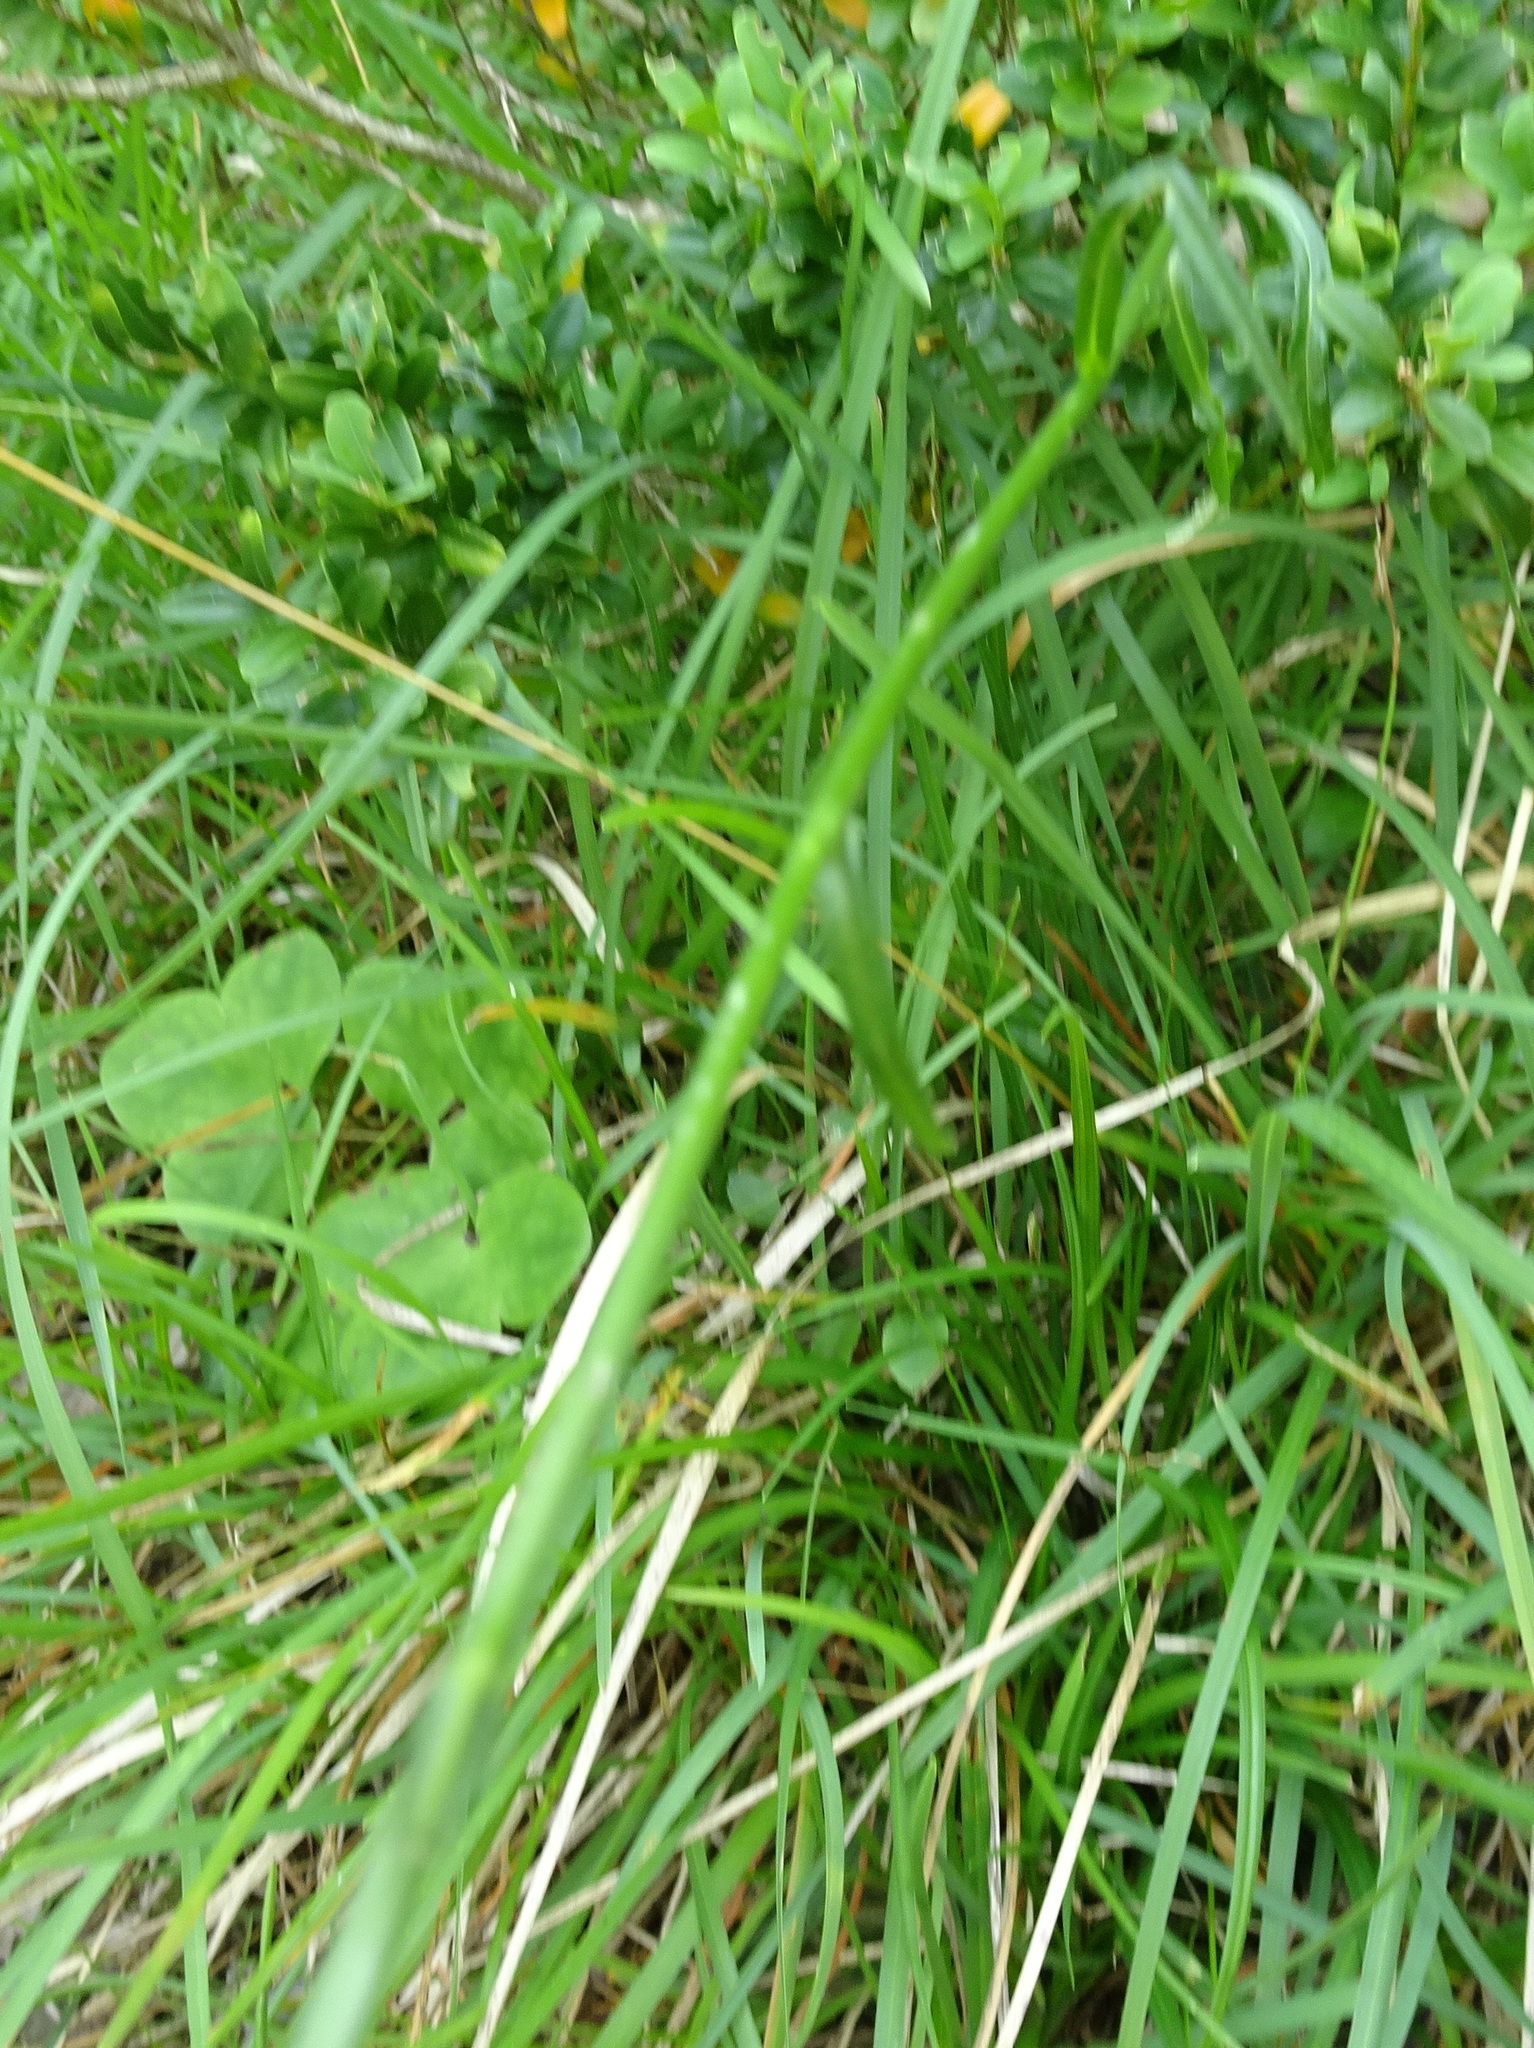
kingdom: Plantae
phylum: Tracheophyta
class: Magnoliopsida
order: Asterales
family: Campanulaceae
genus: Campanula
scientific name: Campanula persicifolia
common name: Peach-leaved bellflower
